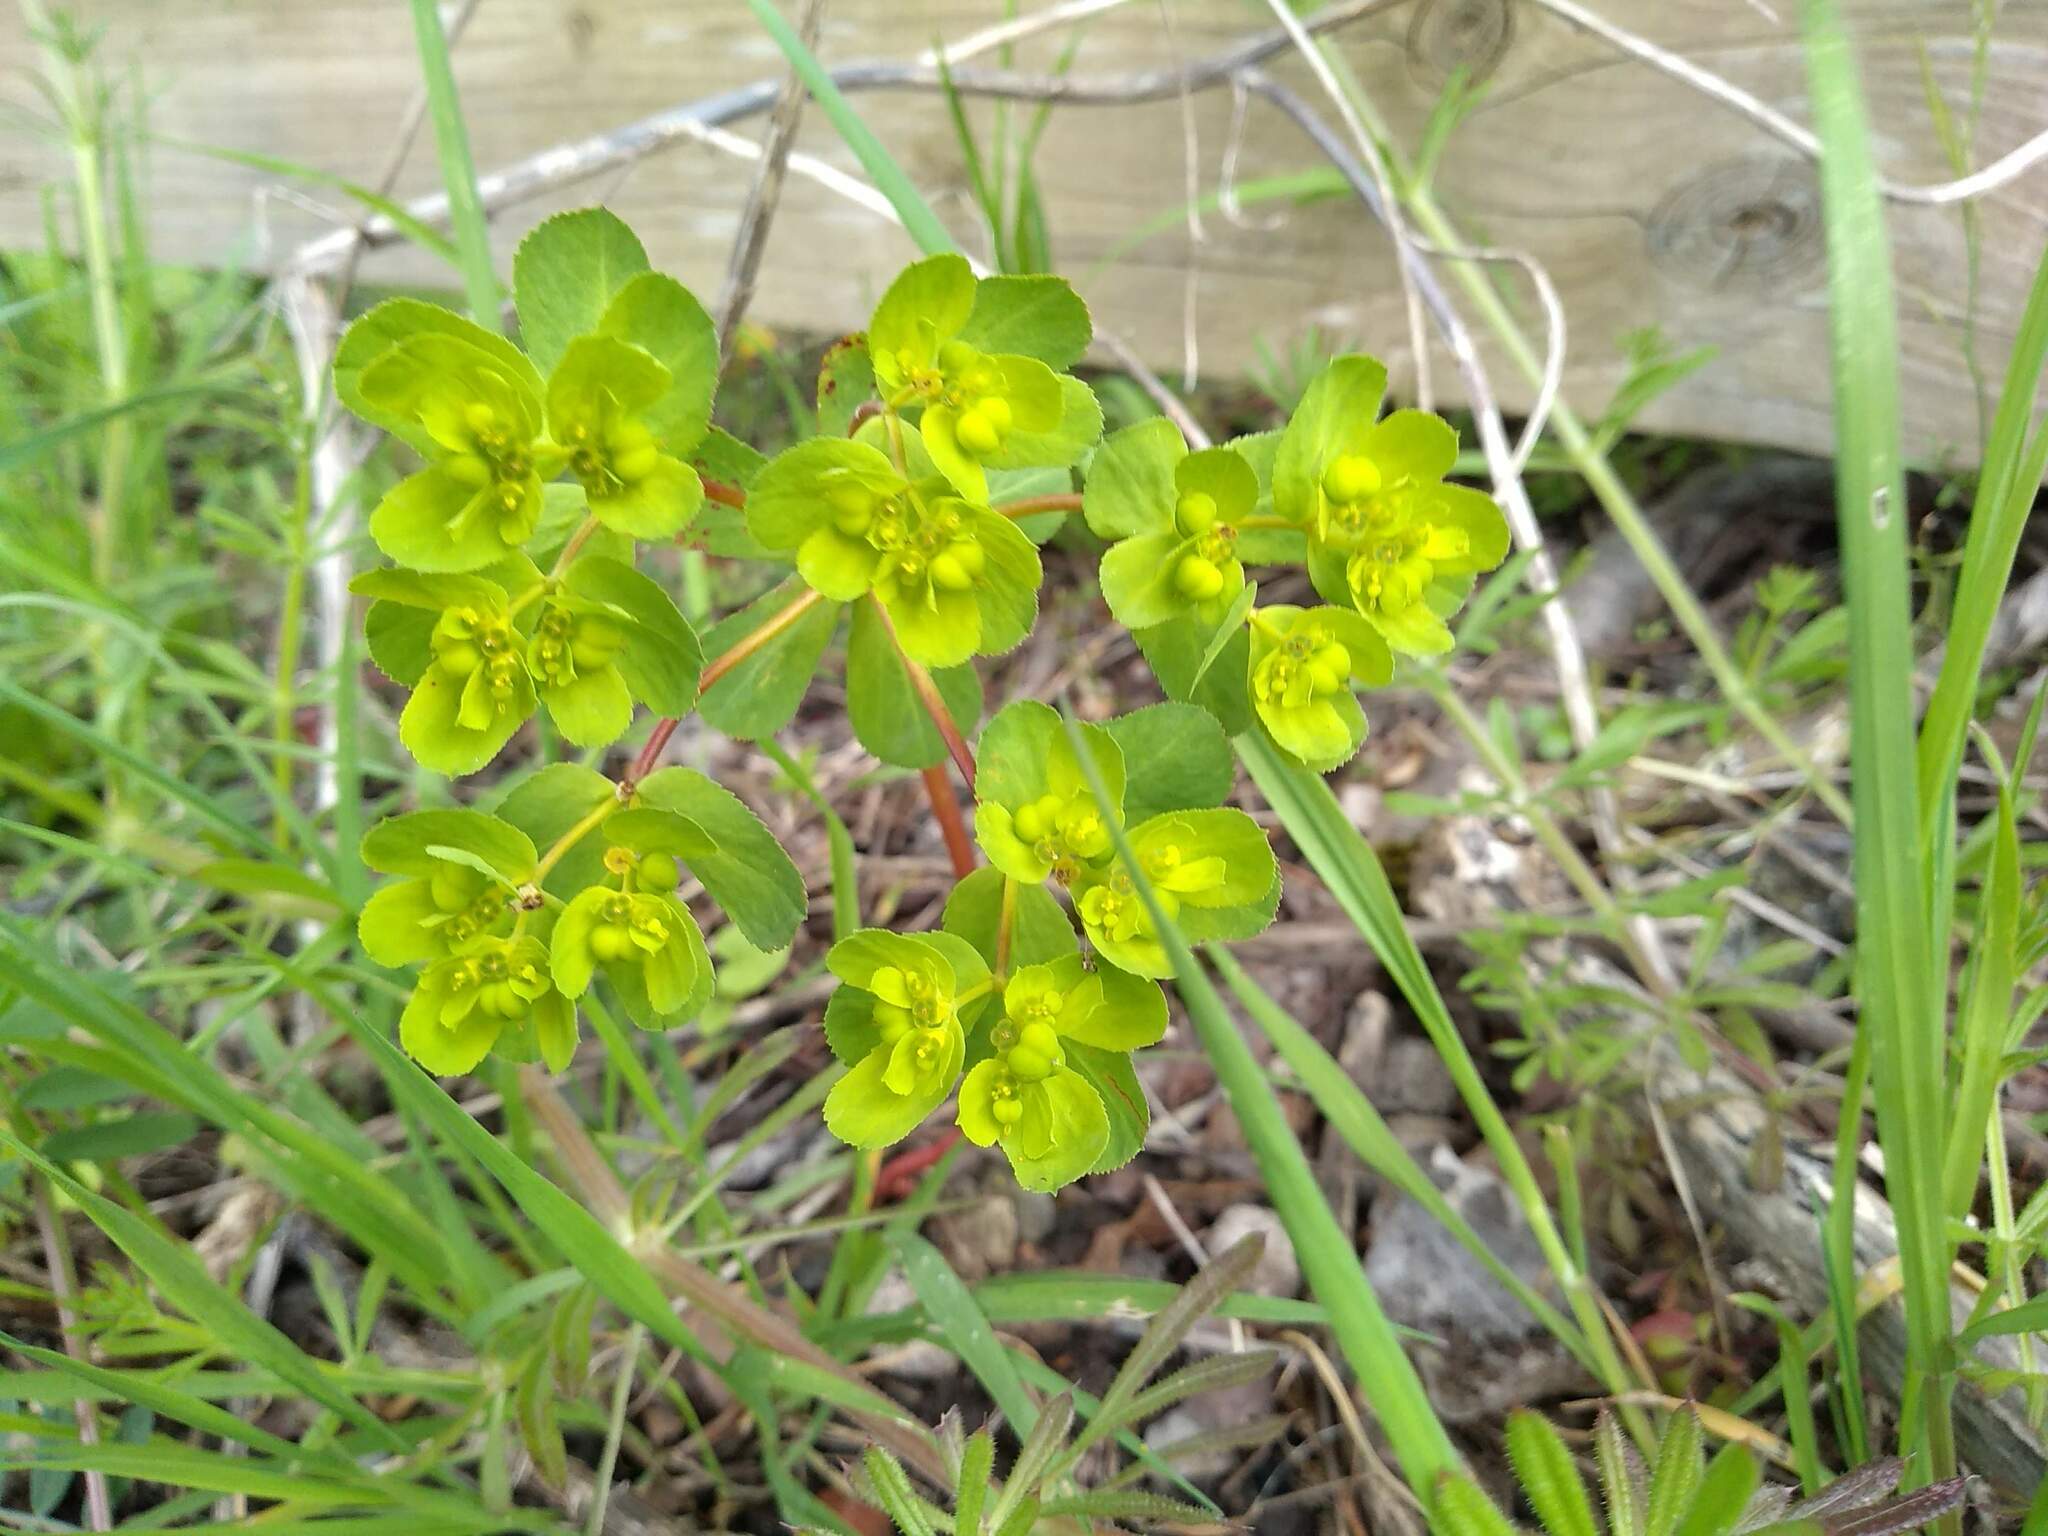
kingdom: Plantae
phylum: Tracheophyta
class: Magnoliopsida
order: Malpighiales
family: Euphorbiaceae
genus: Euphorbia
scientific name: Euphorbia helioscopia
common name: Sun spurge
